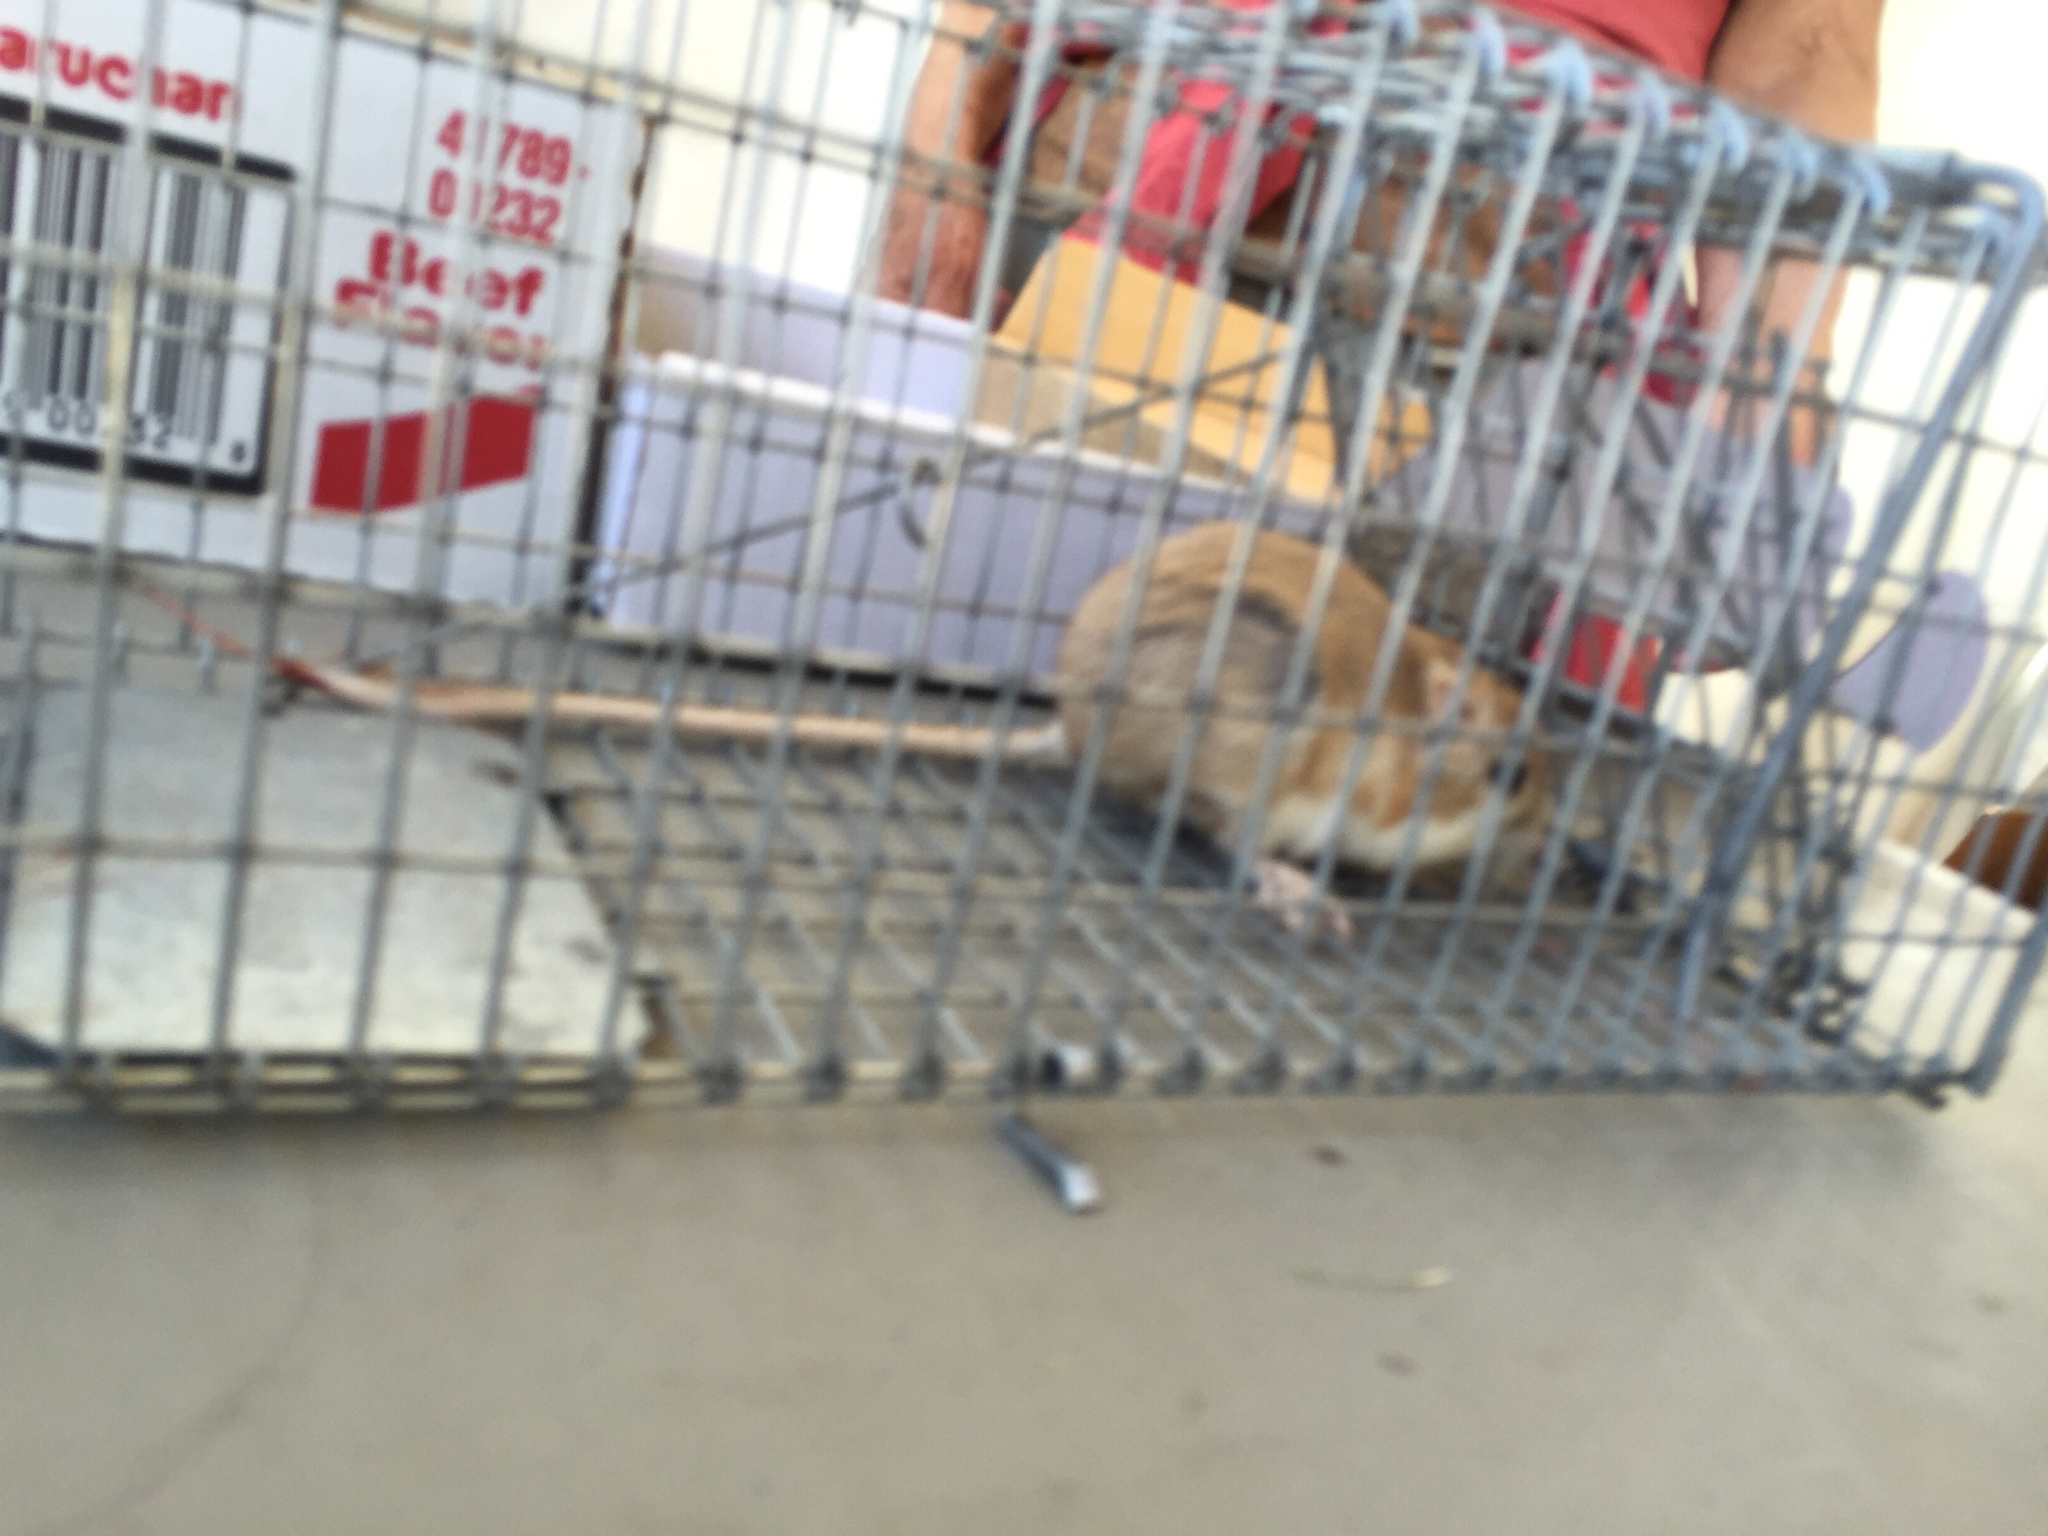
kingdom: Animalia
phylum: Chordata
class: Mammalia
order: Rodentia
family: Heteromyidae
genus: Dipodomys
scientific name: Dipodomys deserti
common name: Desert kangaroo rat
